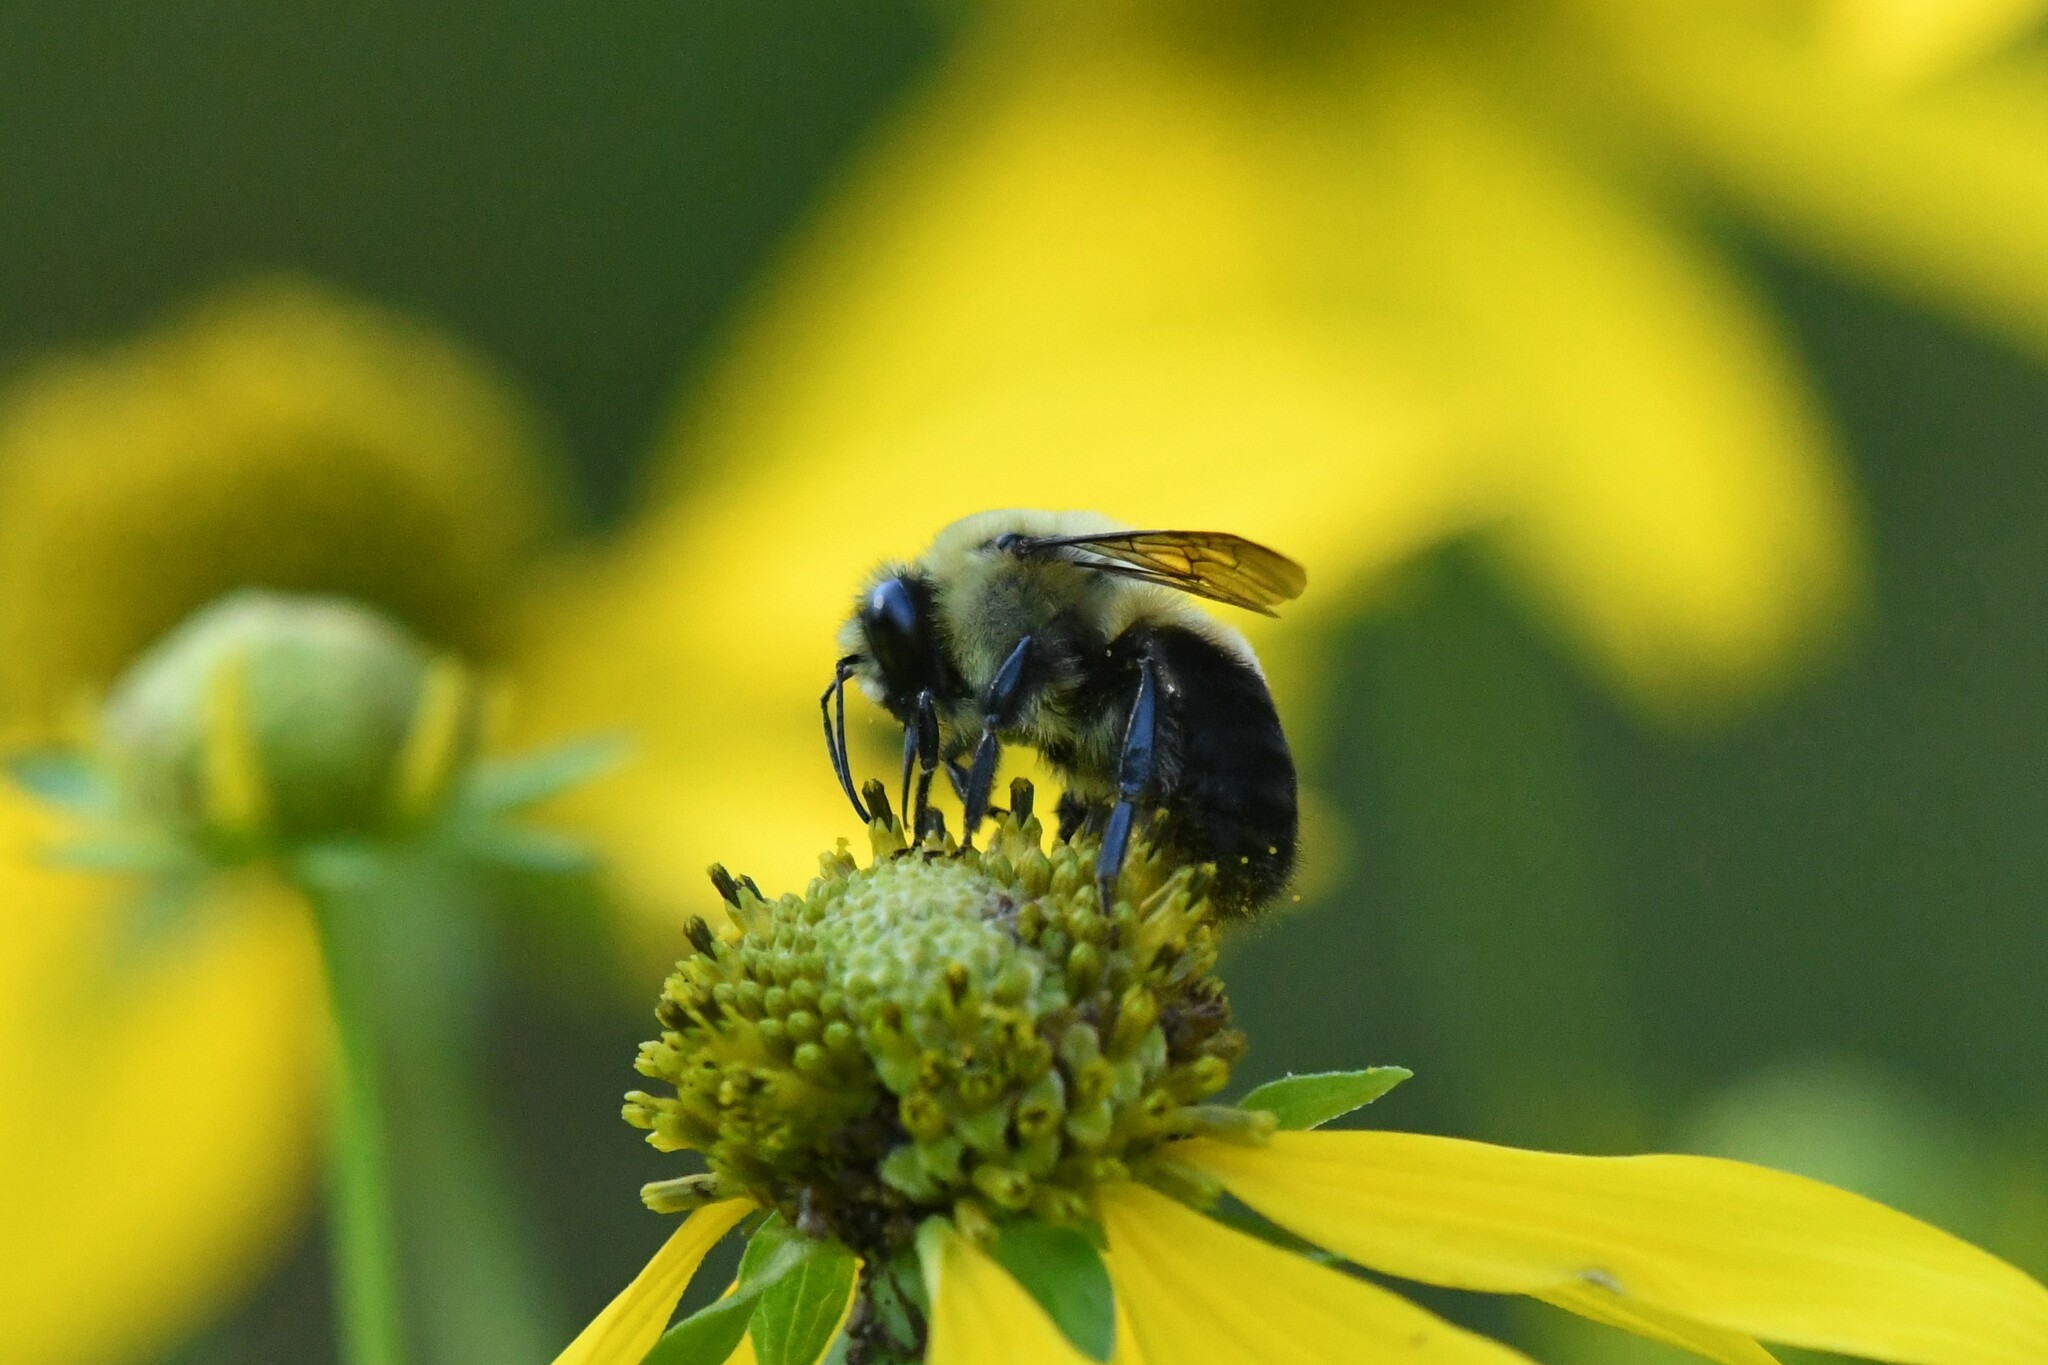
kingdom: Animalia
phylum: Arthropoda
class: Insecta
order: Hymenoptera
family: Apidae
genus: Bombus
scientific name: Bombus griseocollis
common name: Brown-belted bumble bee
